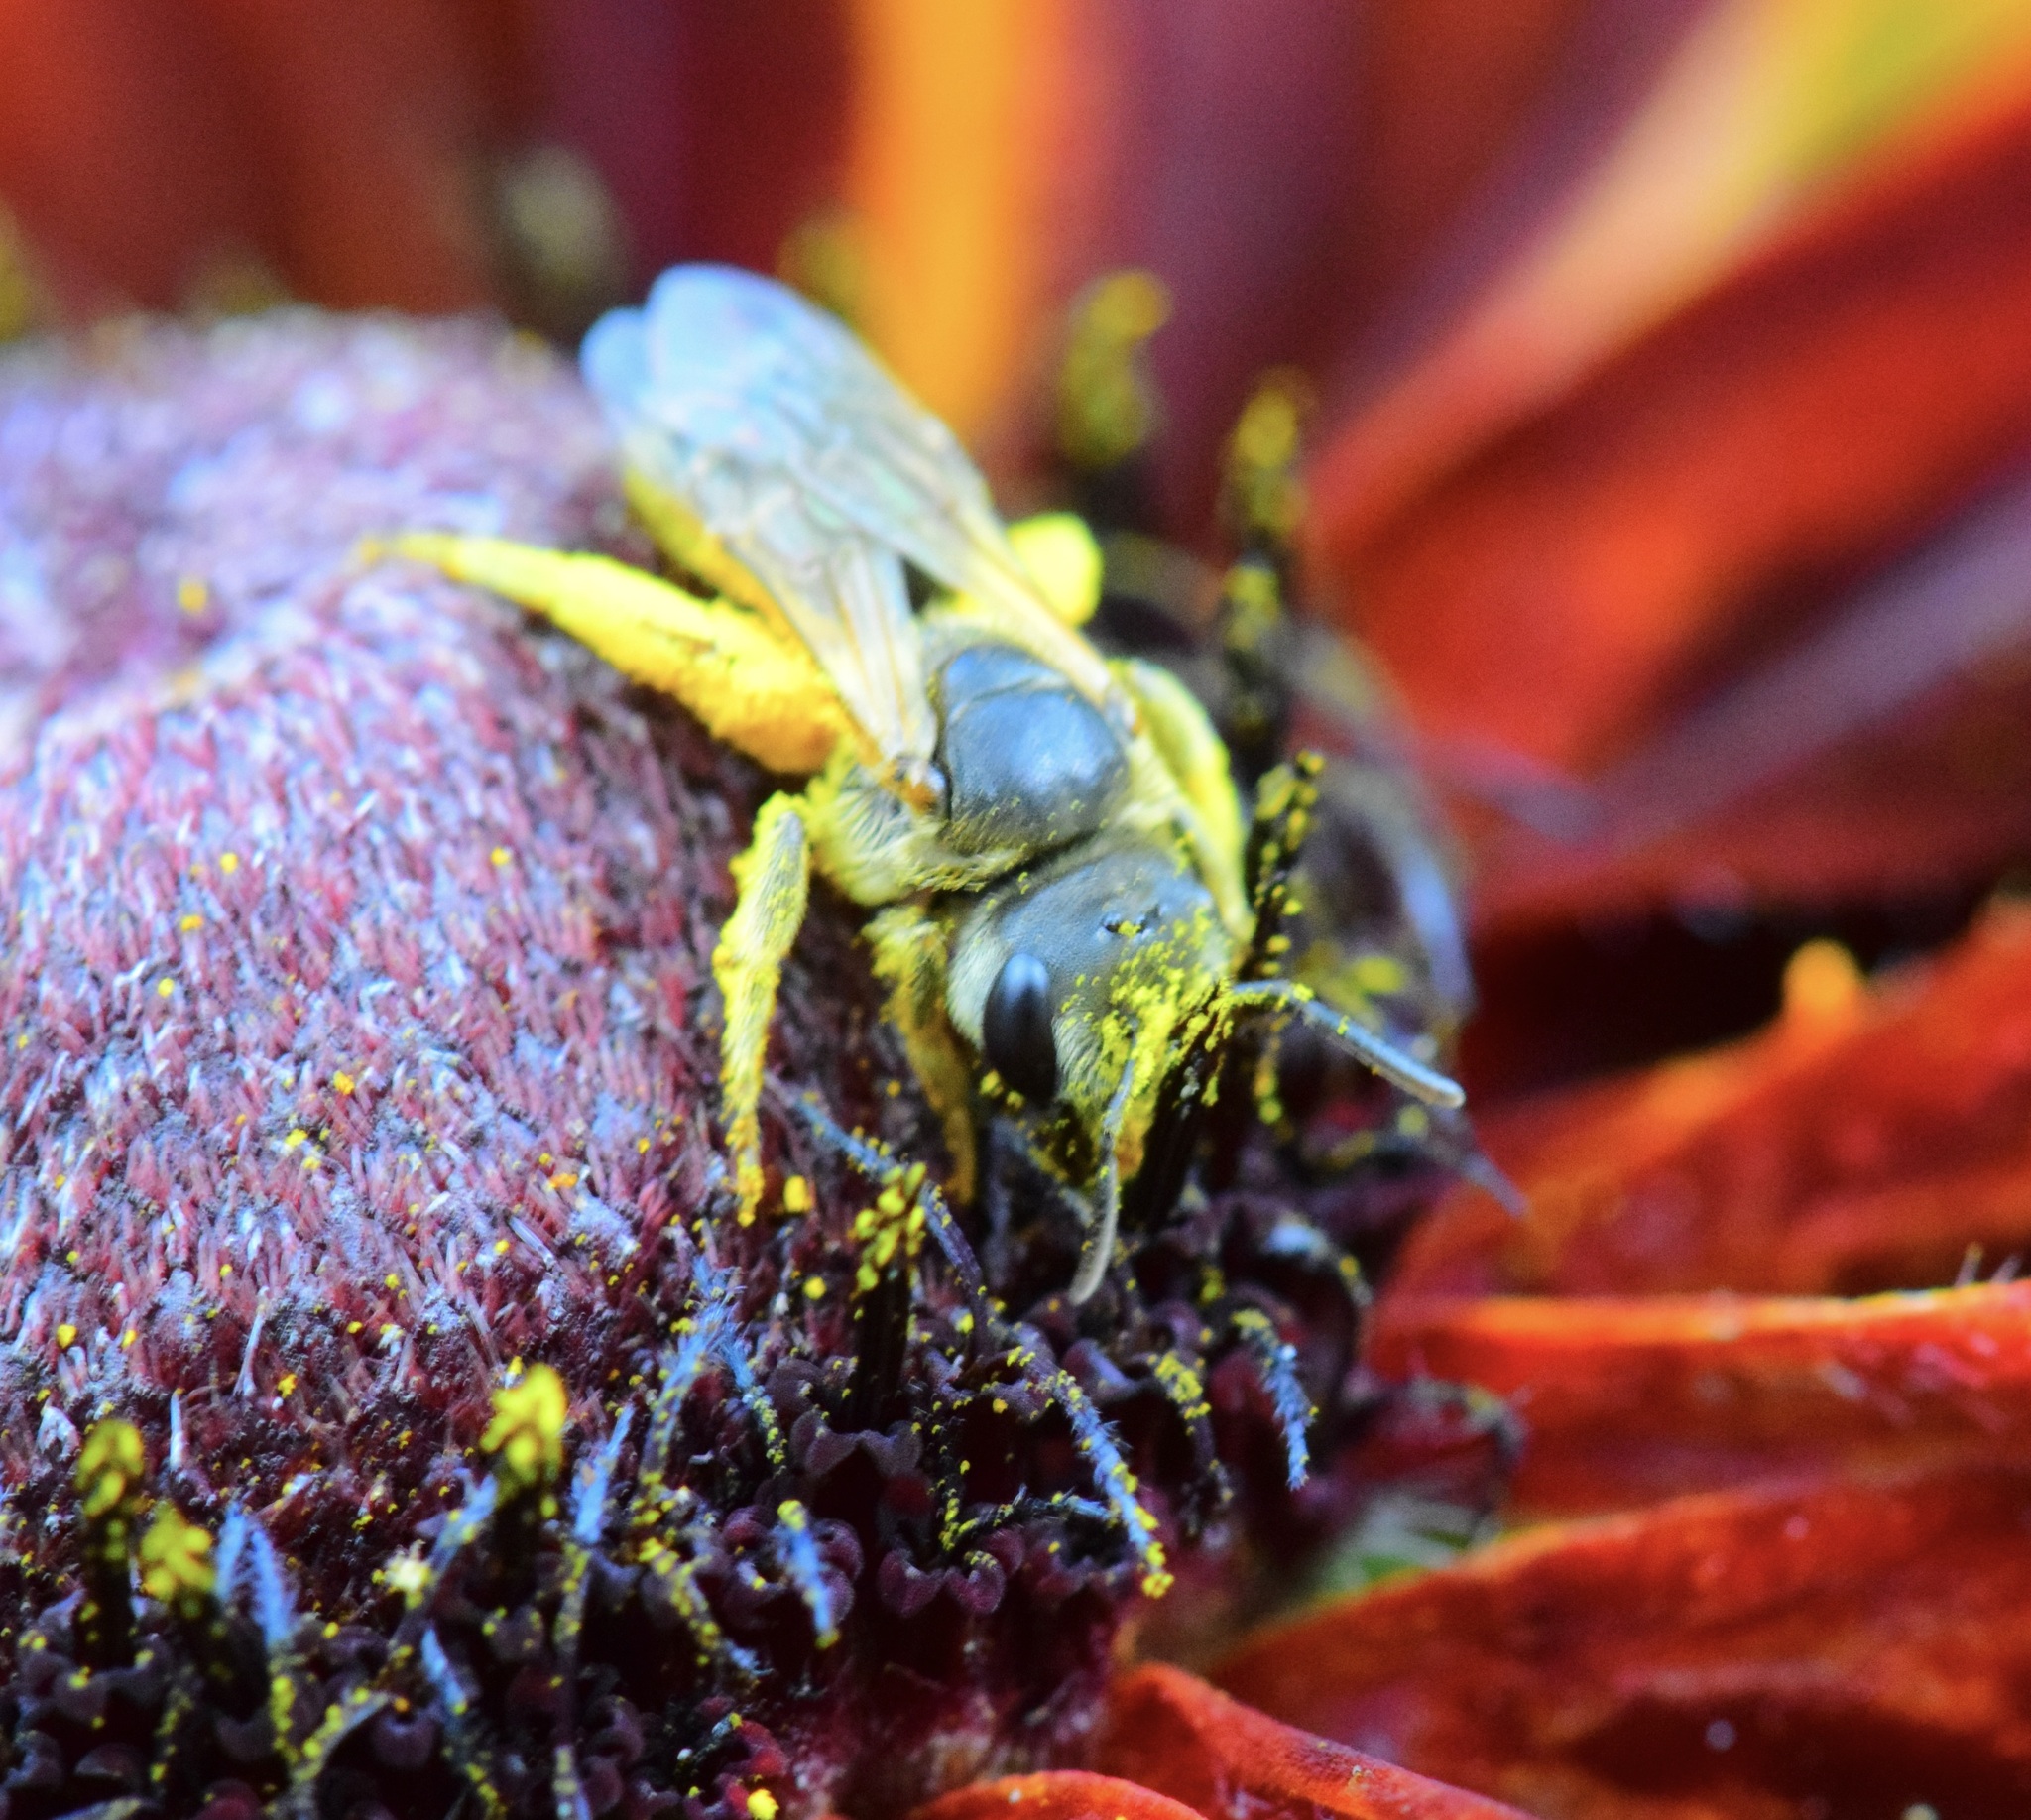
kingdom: Animalia
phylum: Arthropoda
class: Insecta
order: Hymenoptera
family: Halictidae
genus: Halictus
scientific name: Halictus ligatus
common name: Ligated furrow bee
